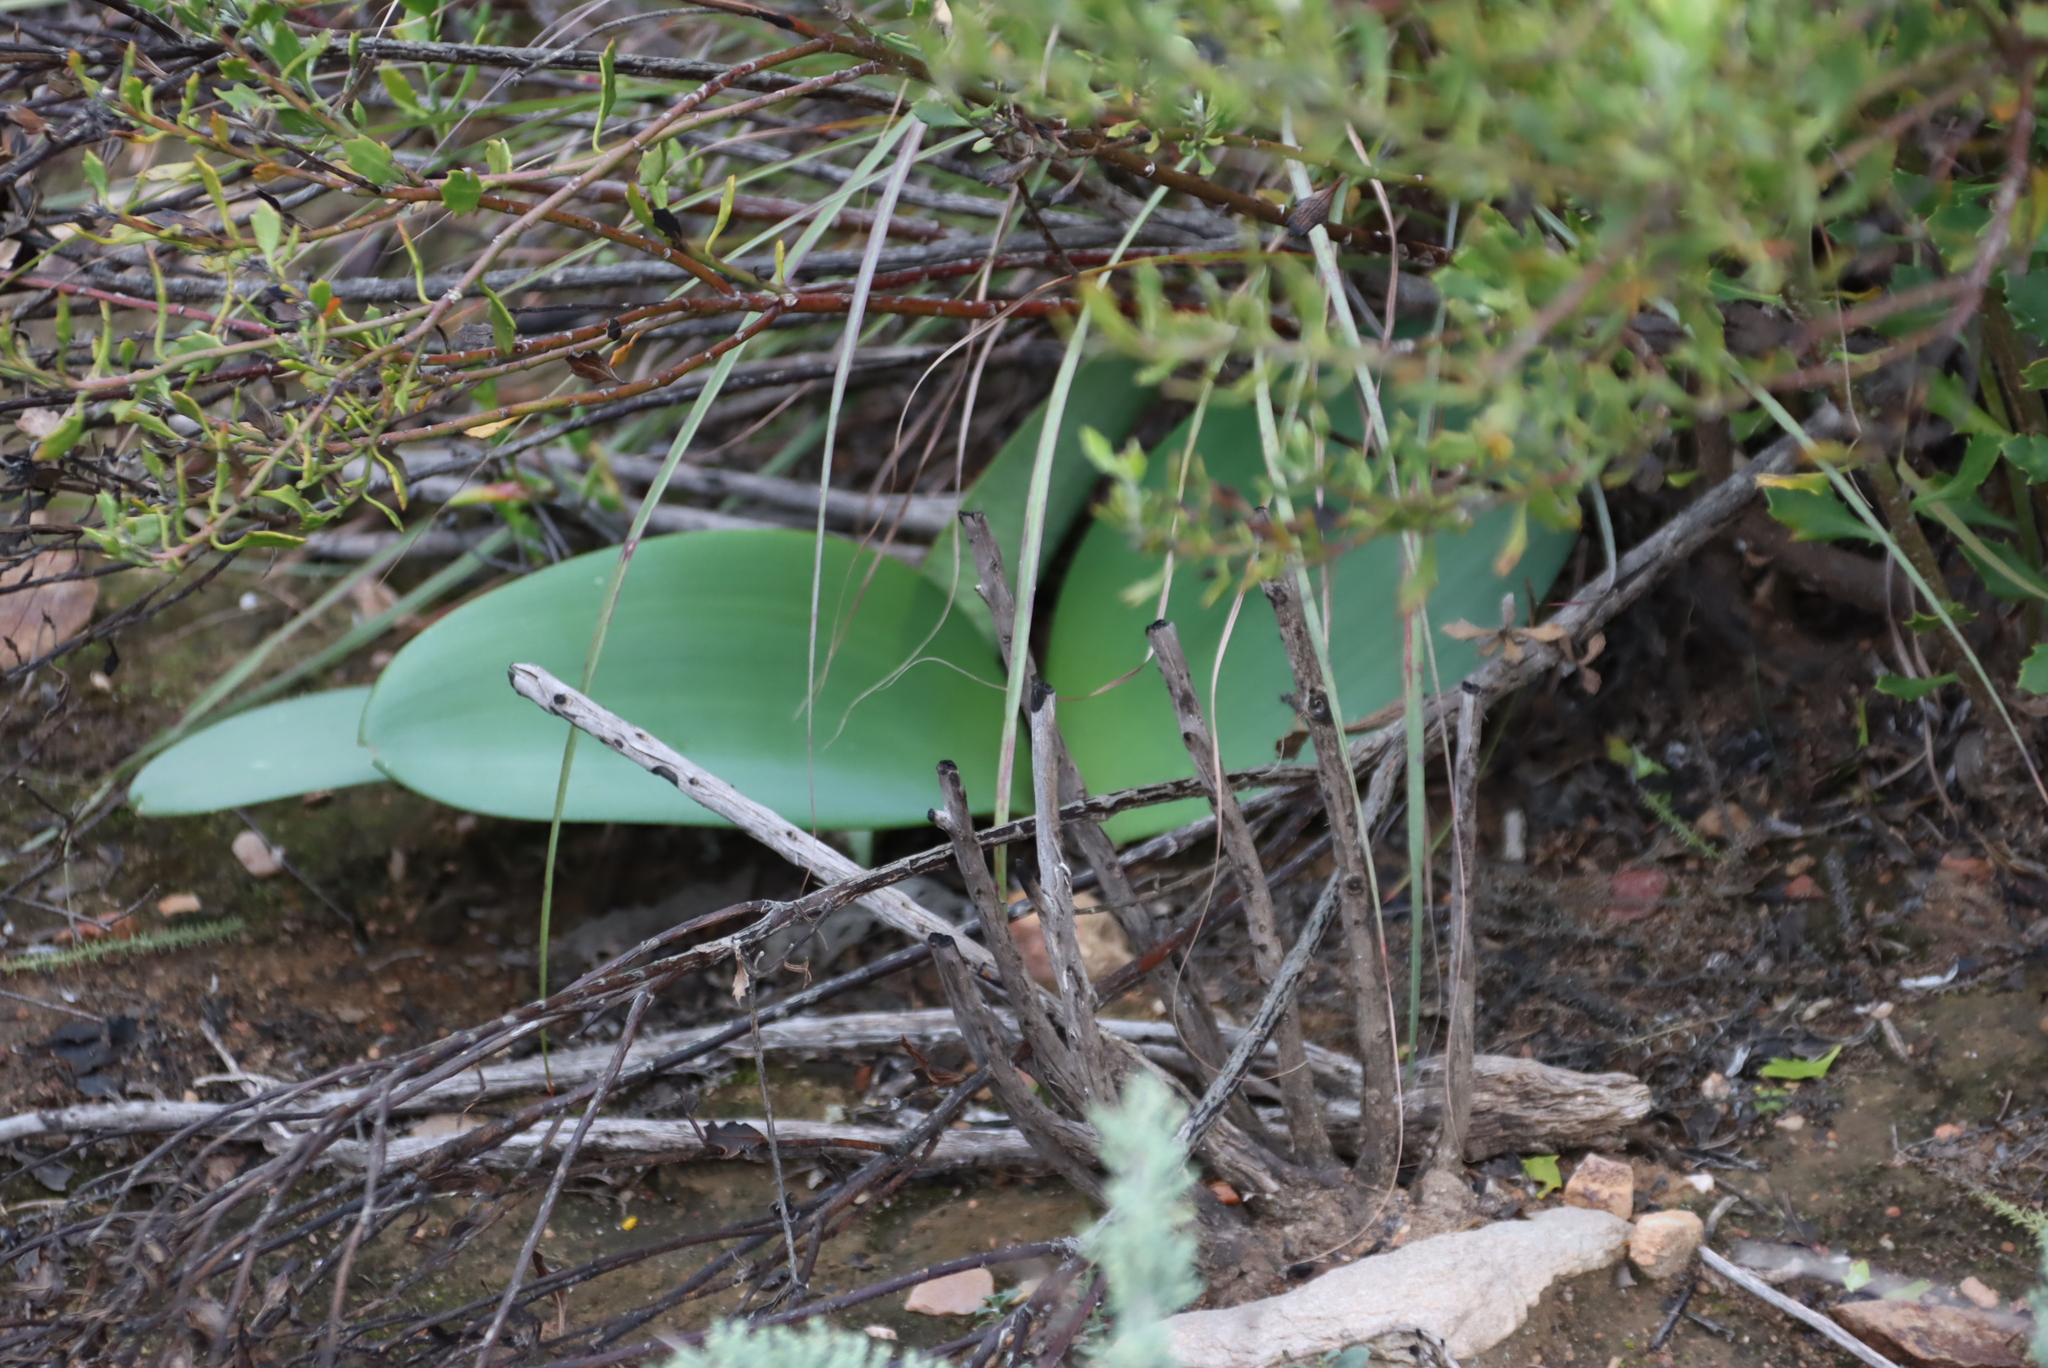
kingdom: Plantae
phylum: Tracheophyta
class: Liliopsida
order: Asparagales
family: Amaryllidaceae
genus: Haemanthus
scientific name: Haemanthus coccineus
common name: Cape-tulip
